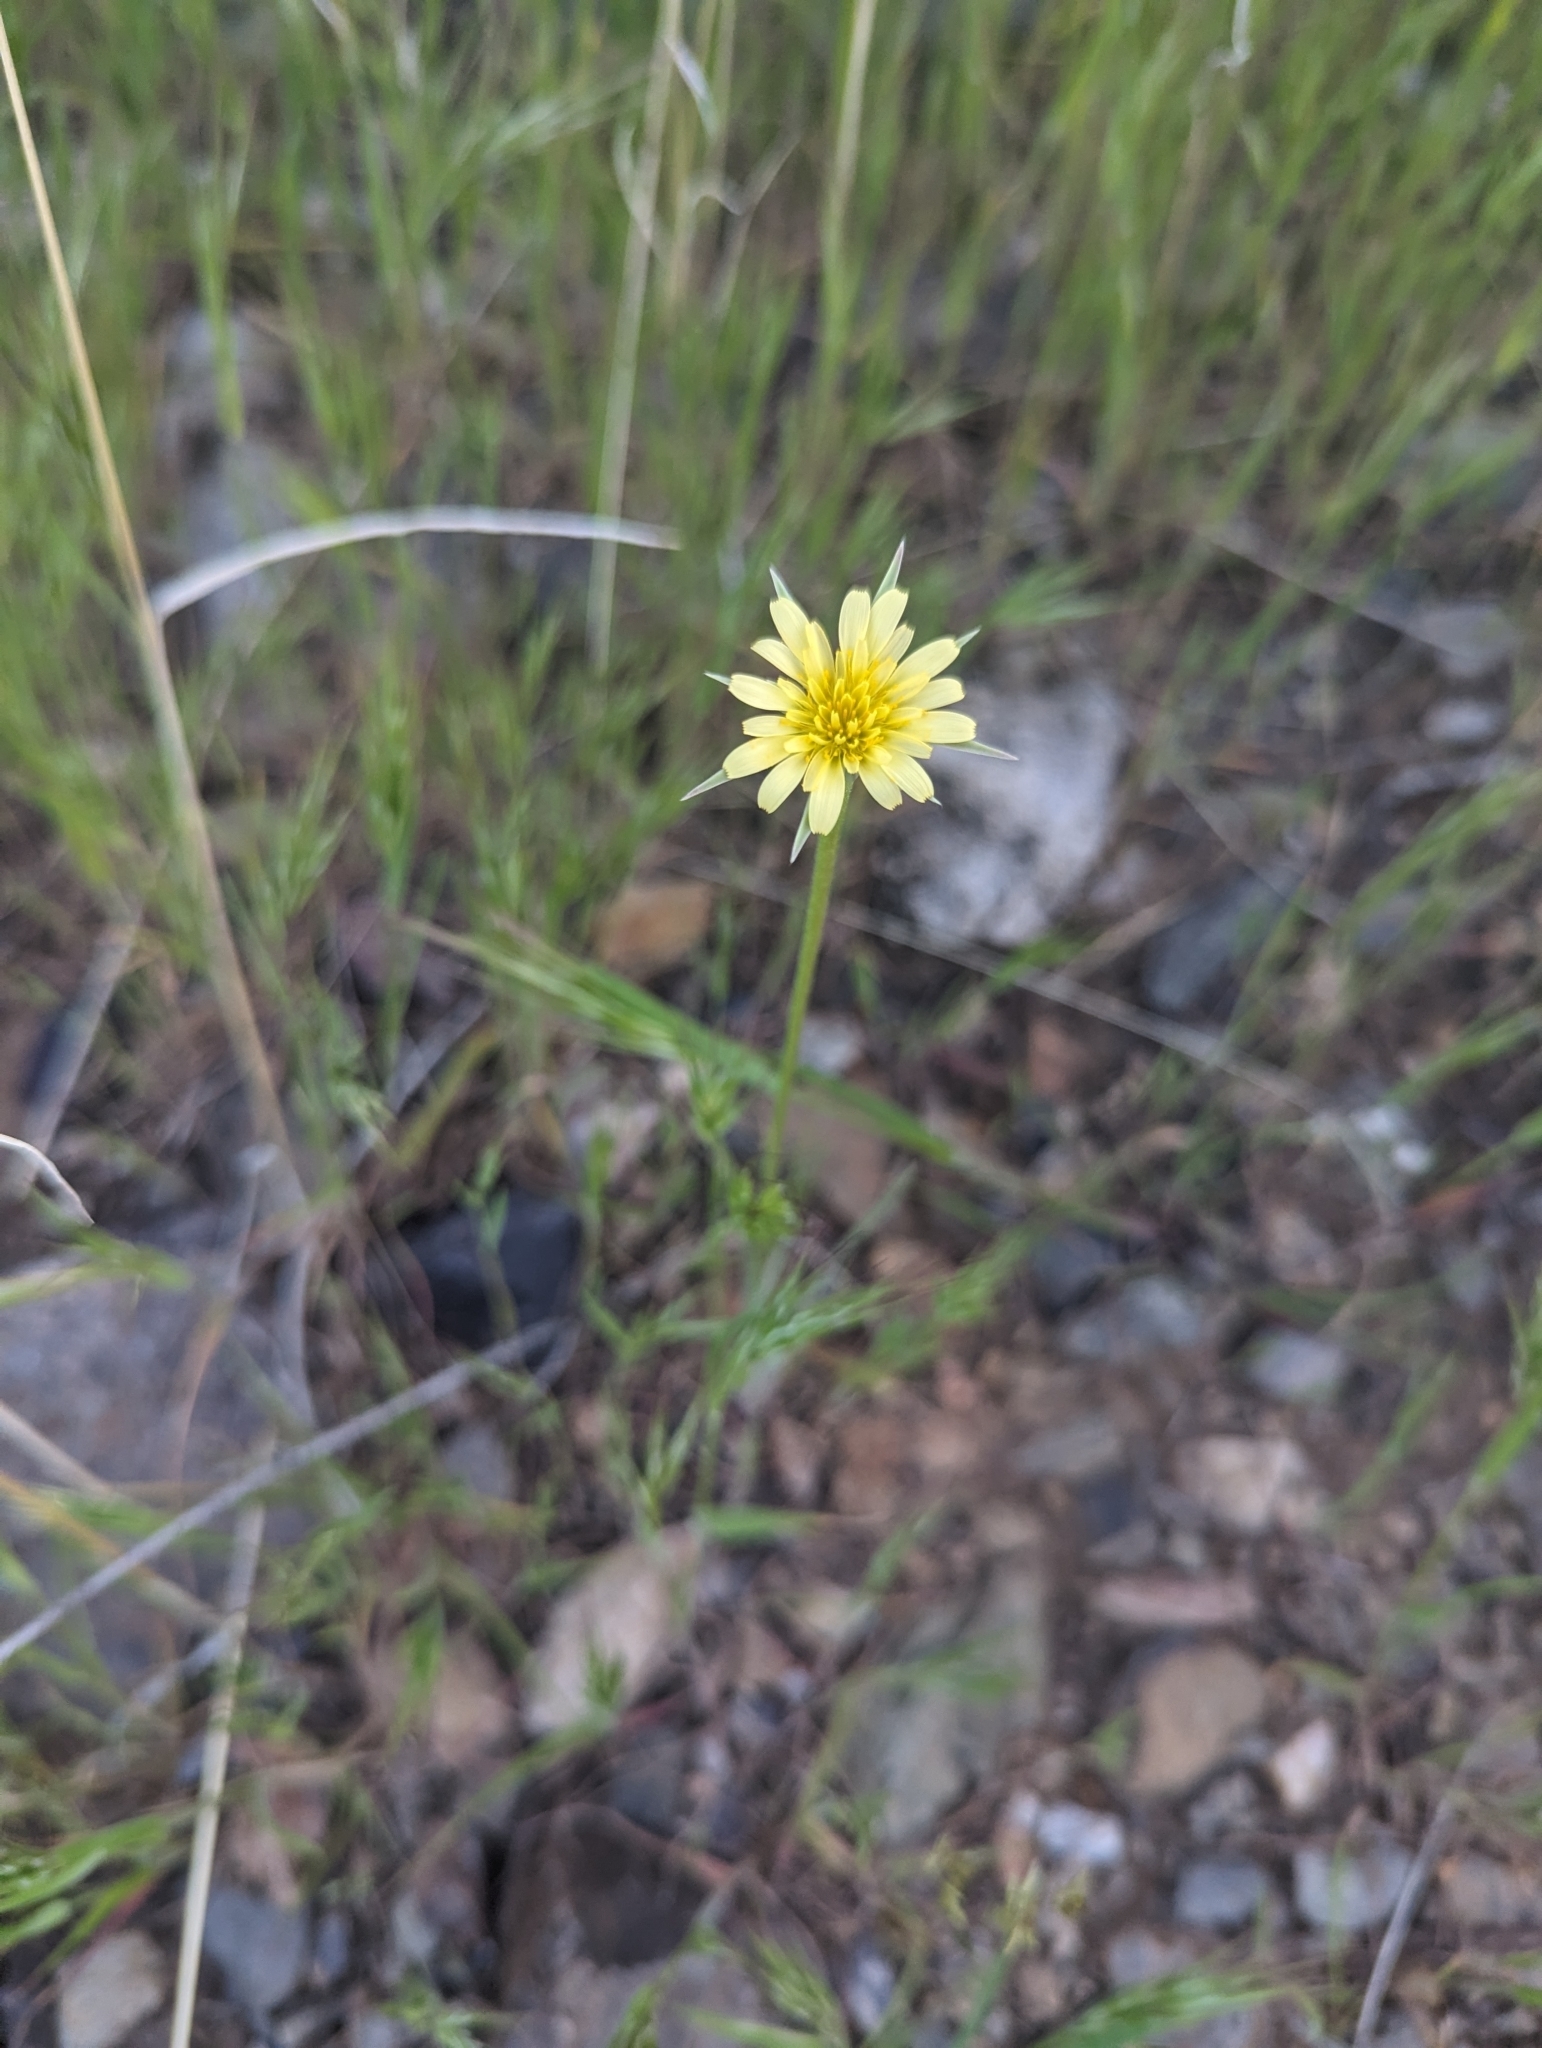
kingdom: Plantae
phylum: Tracheophyta
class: Magnoliopsida
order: Asterales
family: Asteraceae
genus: Microseris
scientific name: Microseris lindleyi
